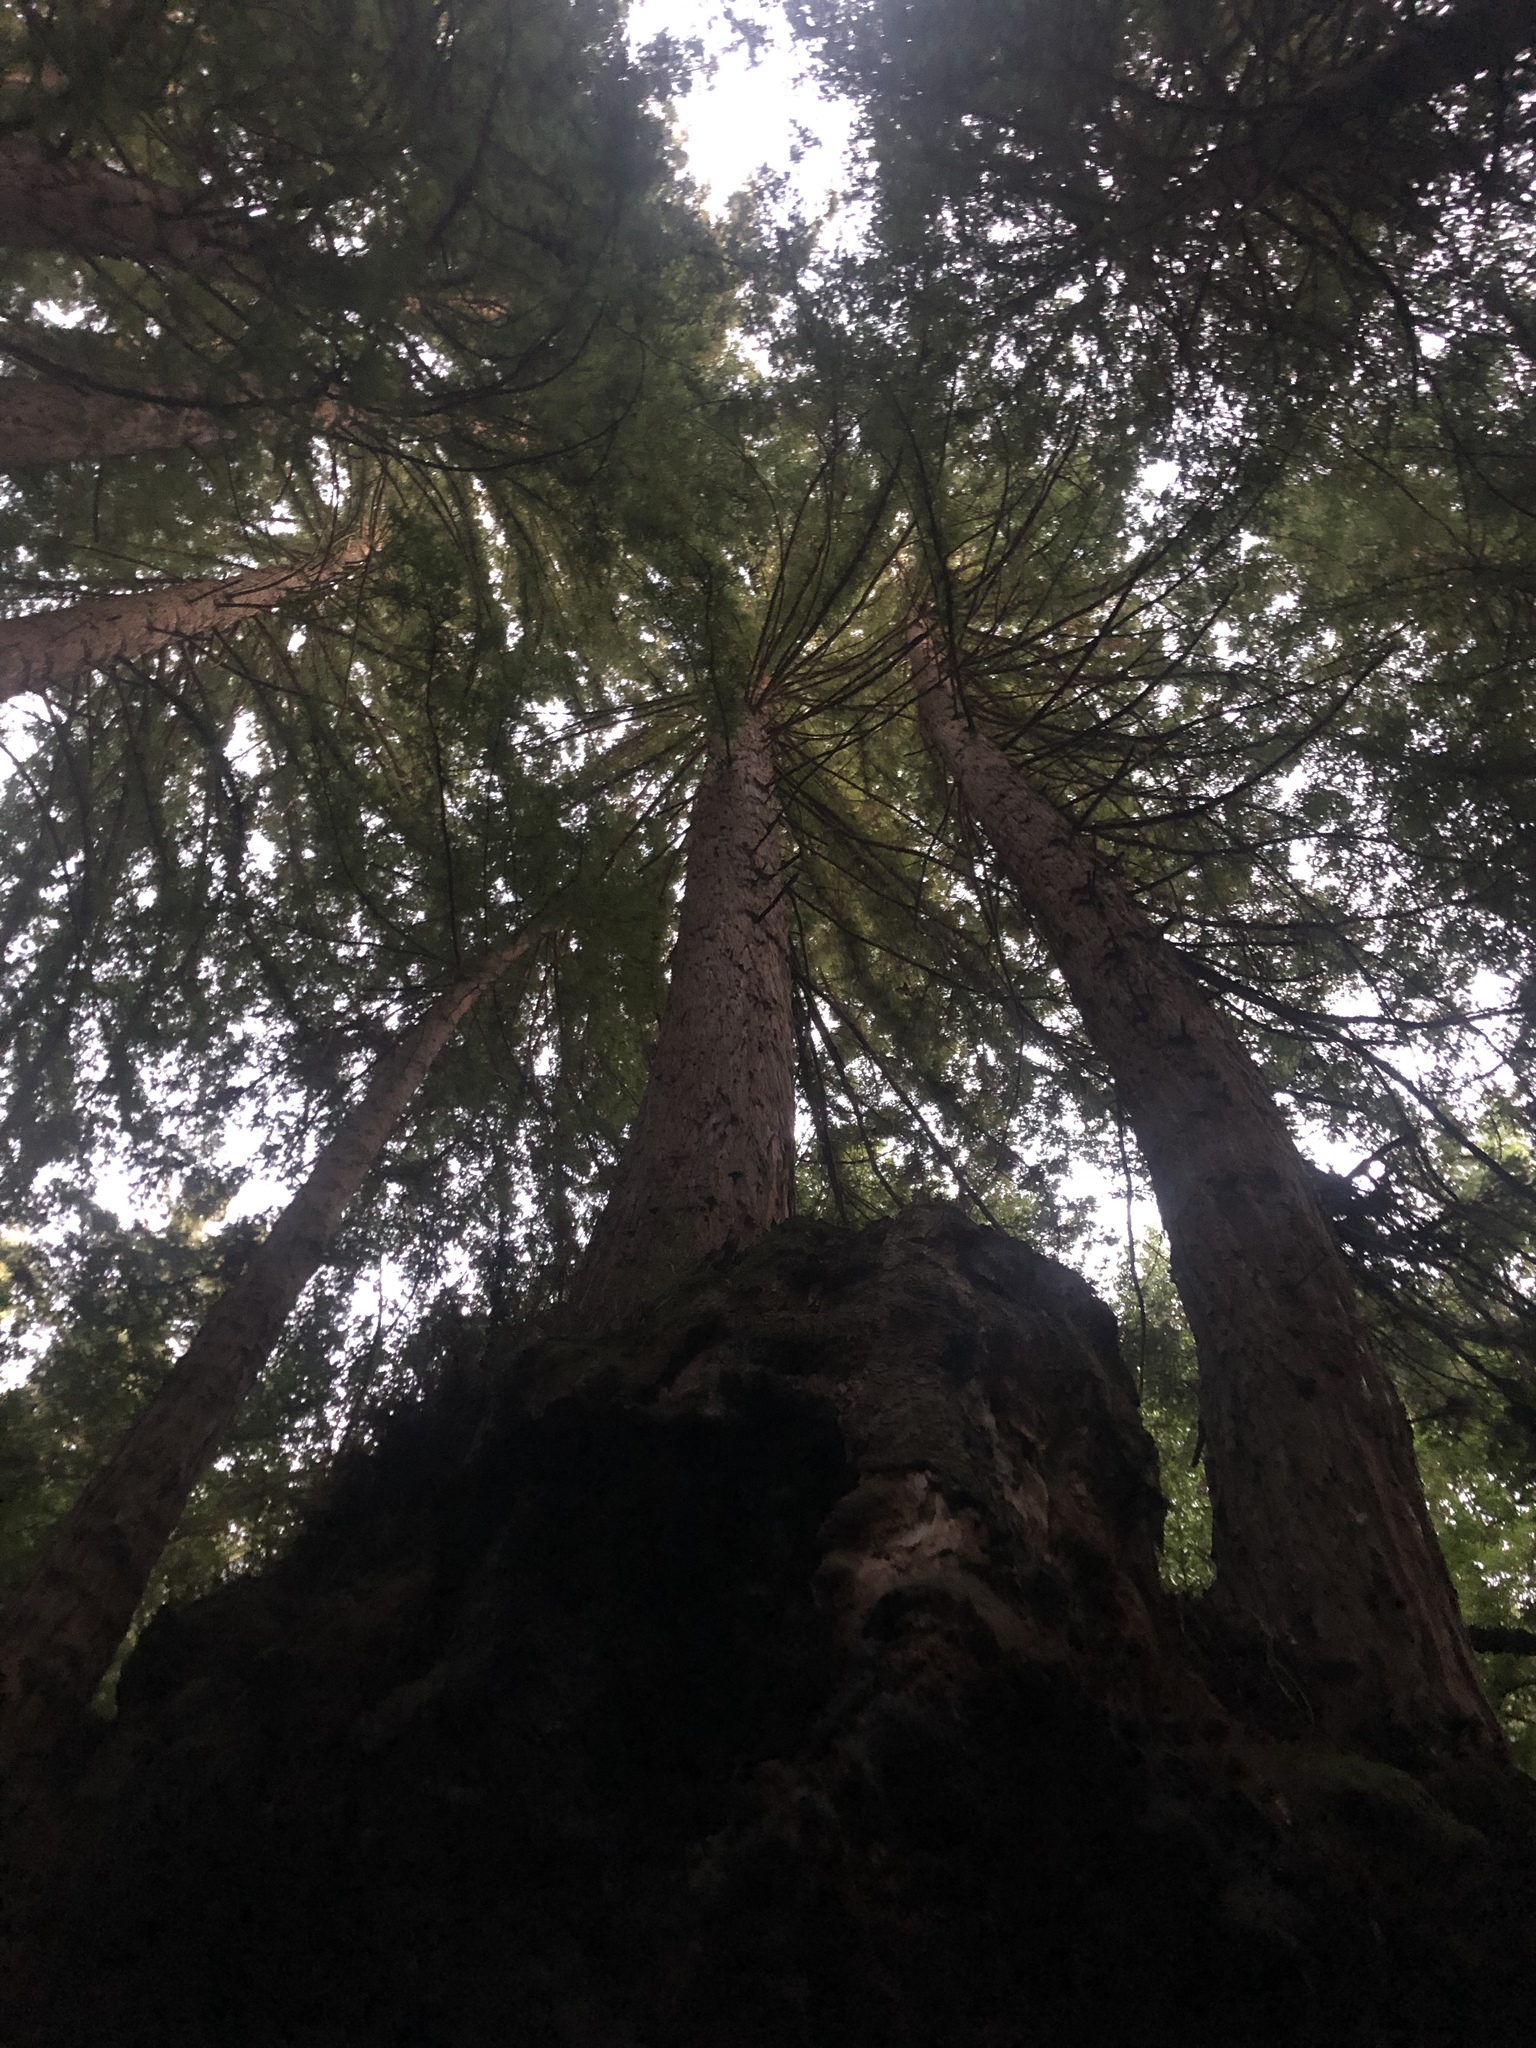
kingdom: Plantae
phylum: Tracheophyta
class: Pinopsida
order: Pinales
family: Cupressaceae
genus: Sequoia
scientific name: Sequoia sempervirens
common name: Coast redwood
